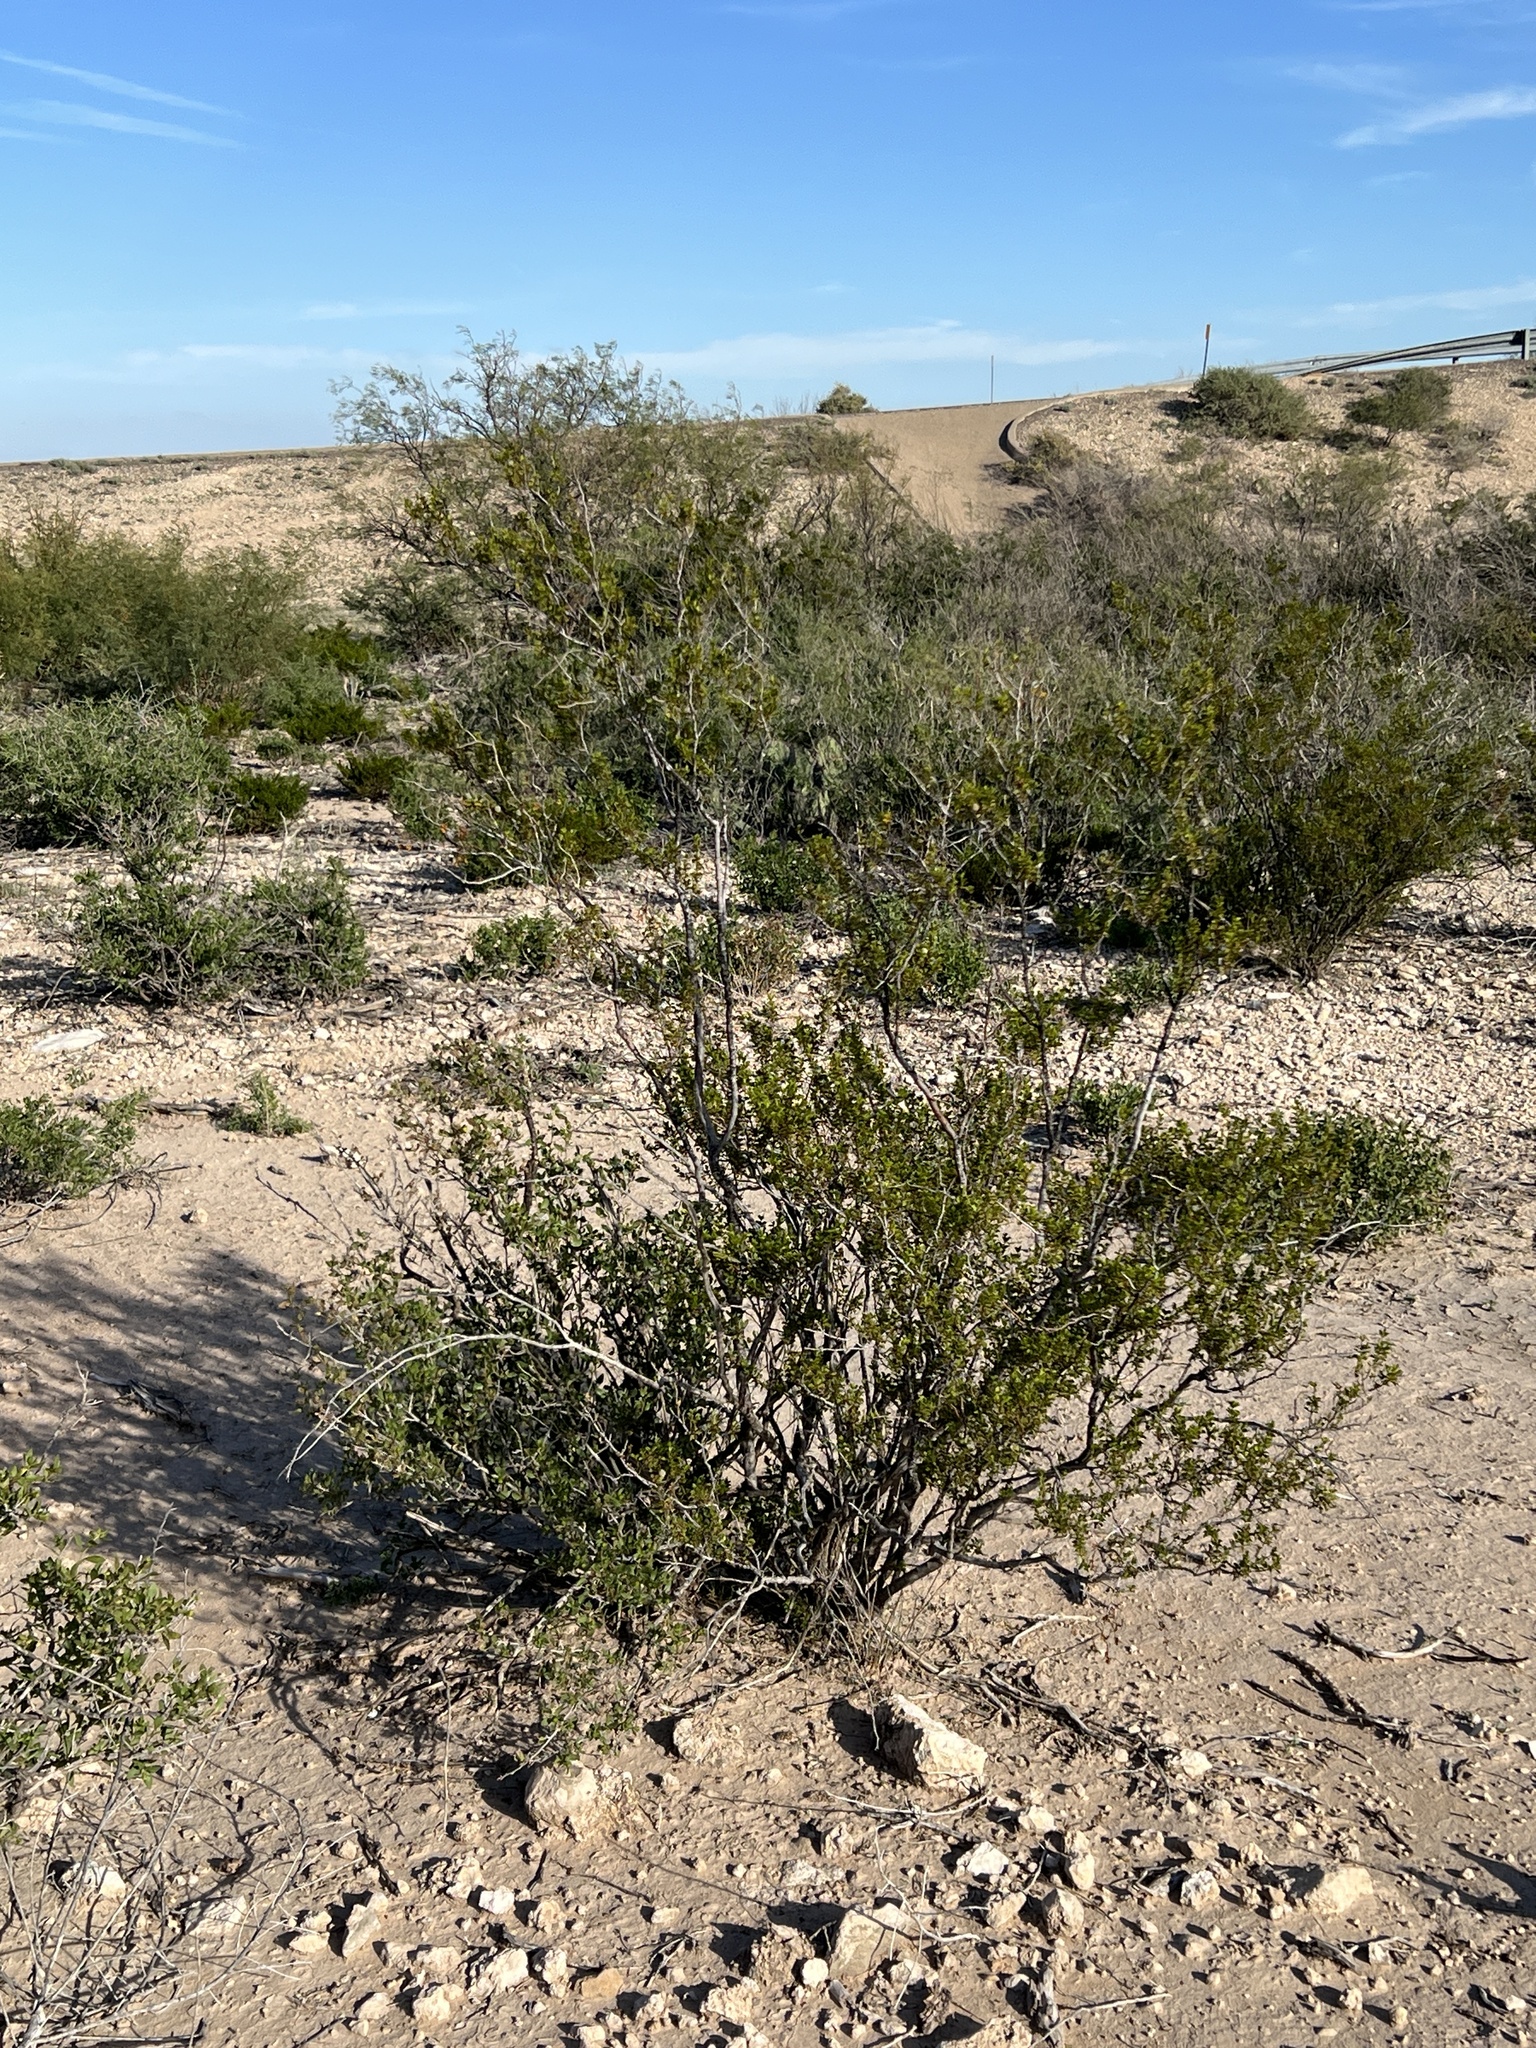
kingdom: Plantae
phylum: Tracheophyta
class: Magnoliopsida
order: Zygophyllales
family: Zygophyllaceae
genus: Larrea
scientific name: Larrea tridentata
